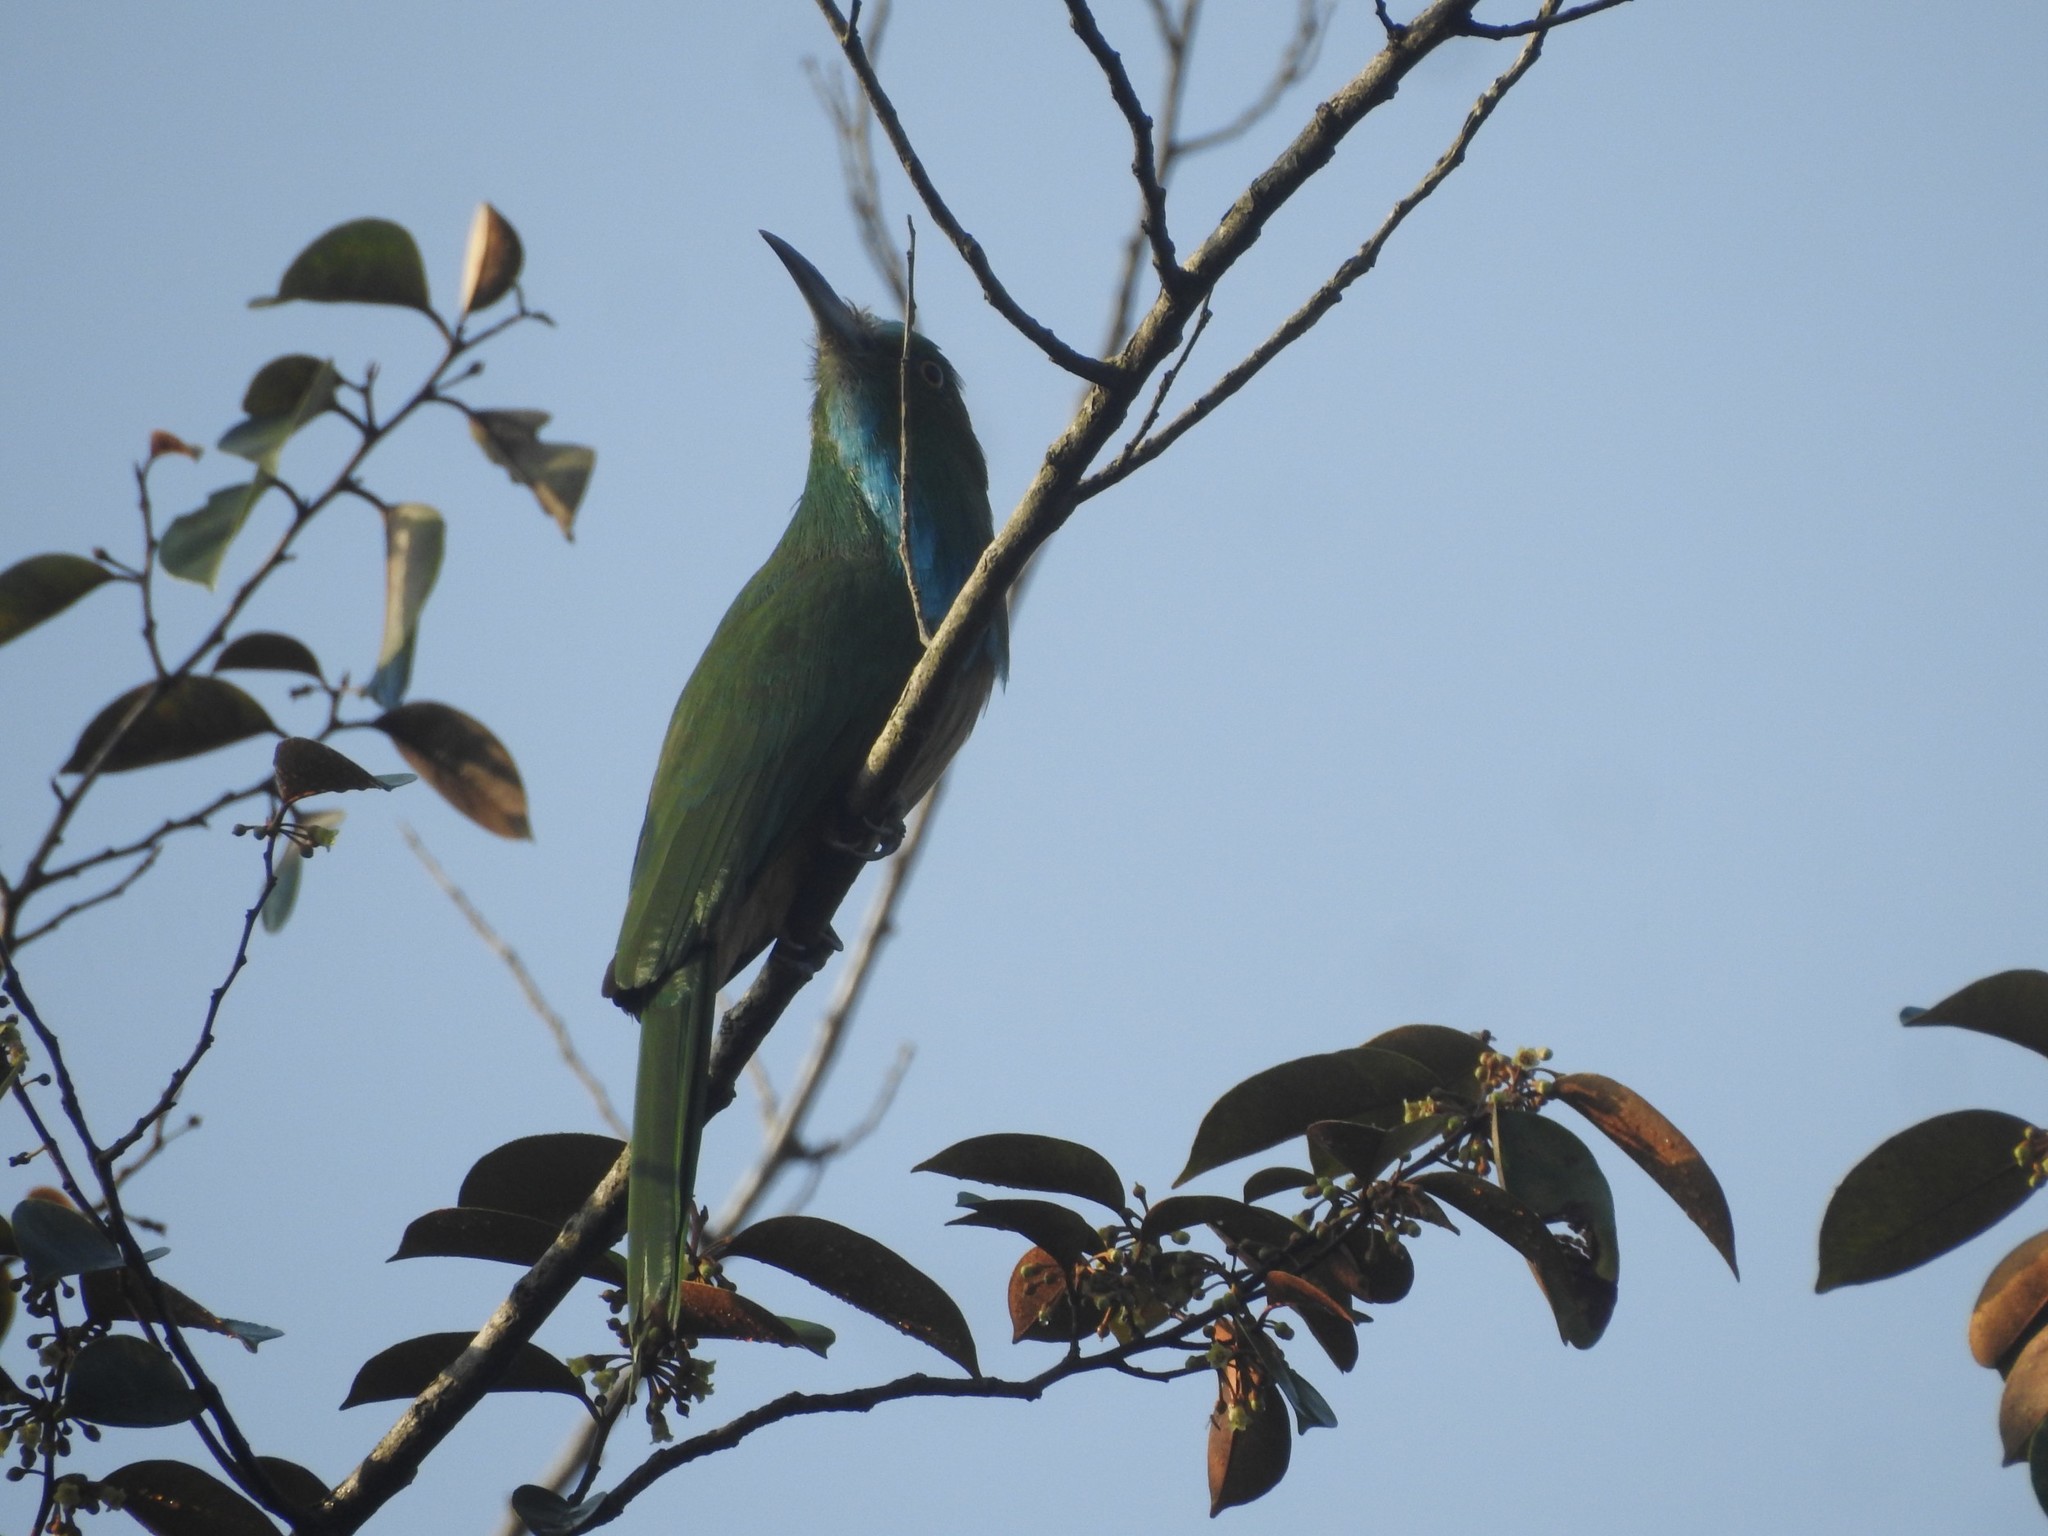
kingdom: Animalia
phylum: Chordata
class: Aves
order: Coraciiformes
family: Meropidae
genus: Nyctyornis
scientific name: Nyctyornis athertoni
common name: Blue-bearded bee-eater
